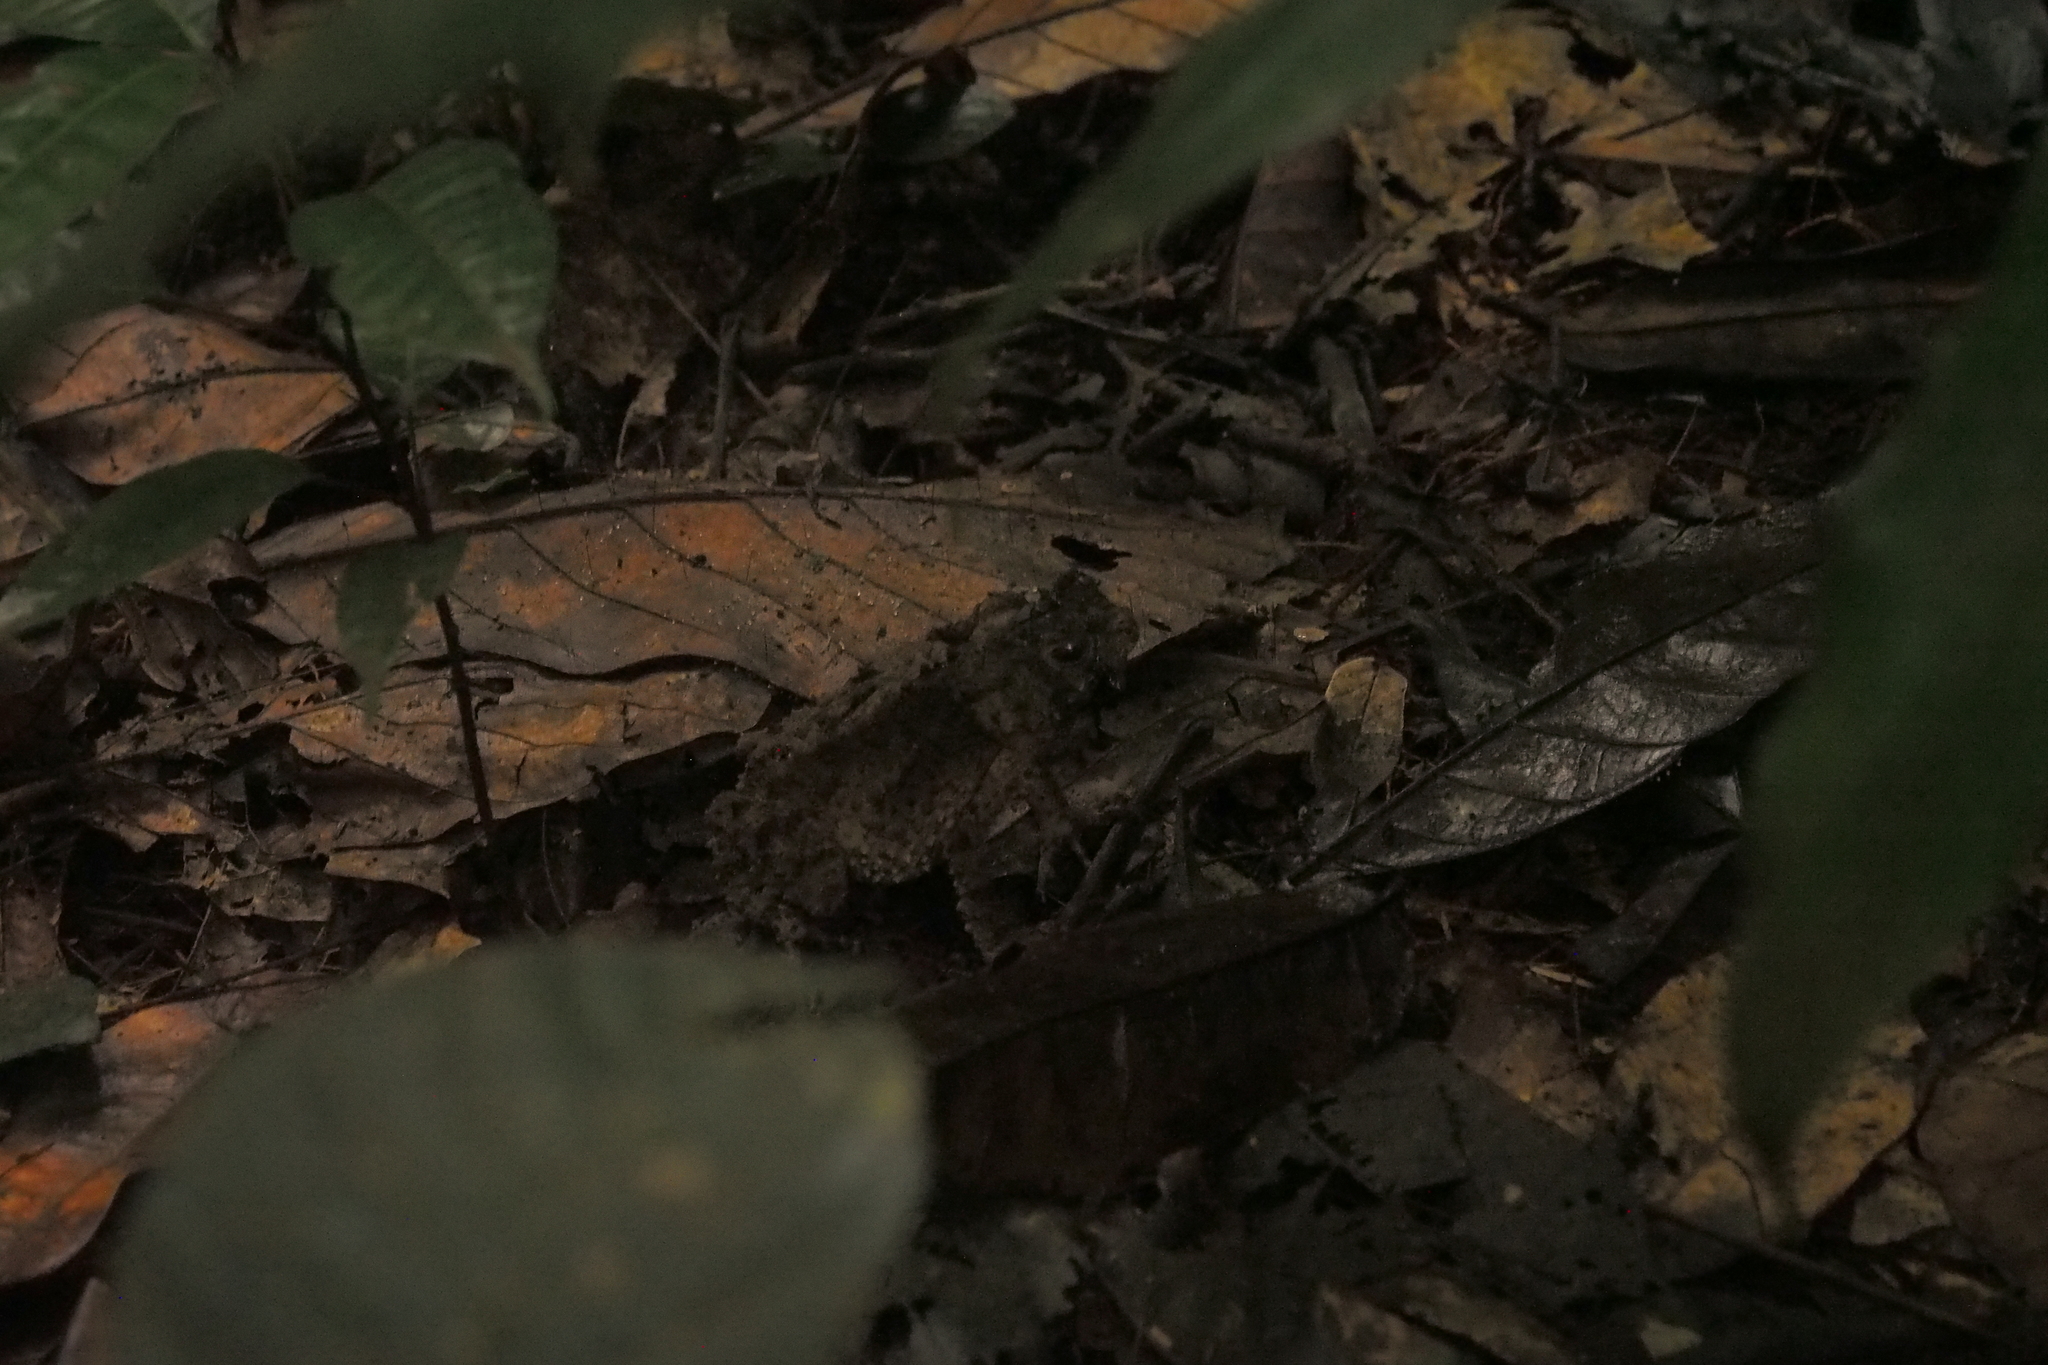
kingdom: Animalia
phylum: Chordata
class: Amphibia
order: Anura
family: Bufonidae
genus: Sclerophrys
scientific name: Sclerophrys tuberosa
